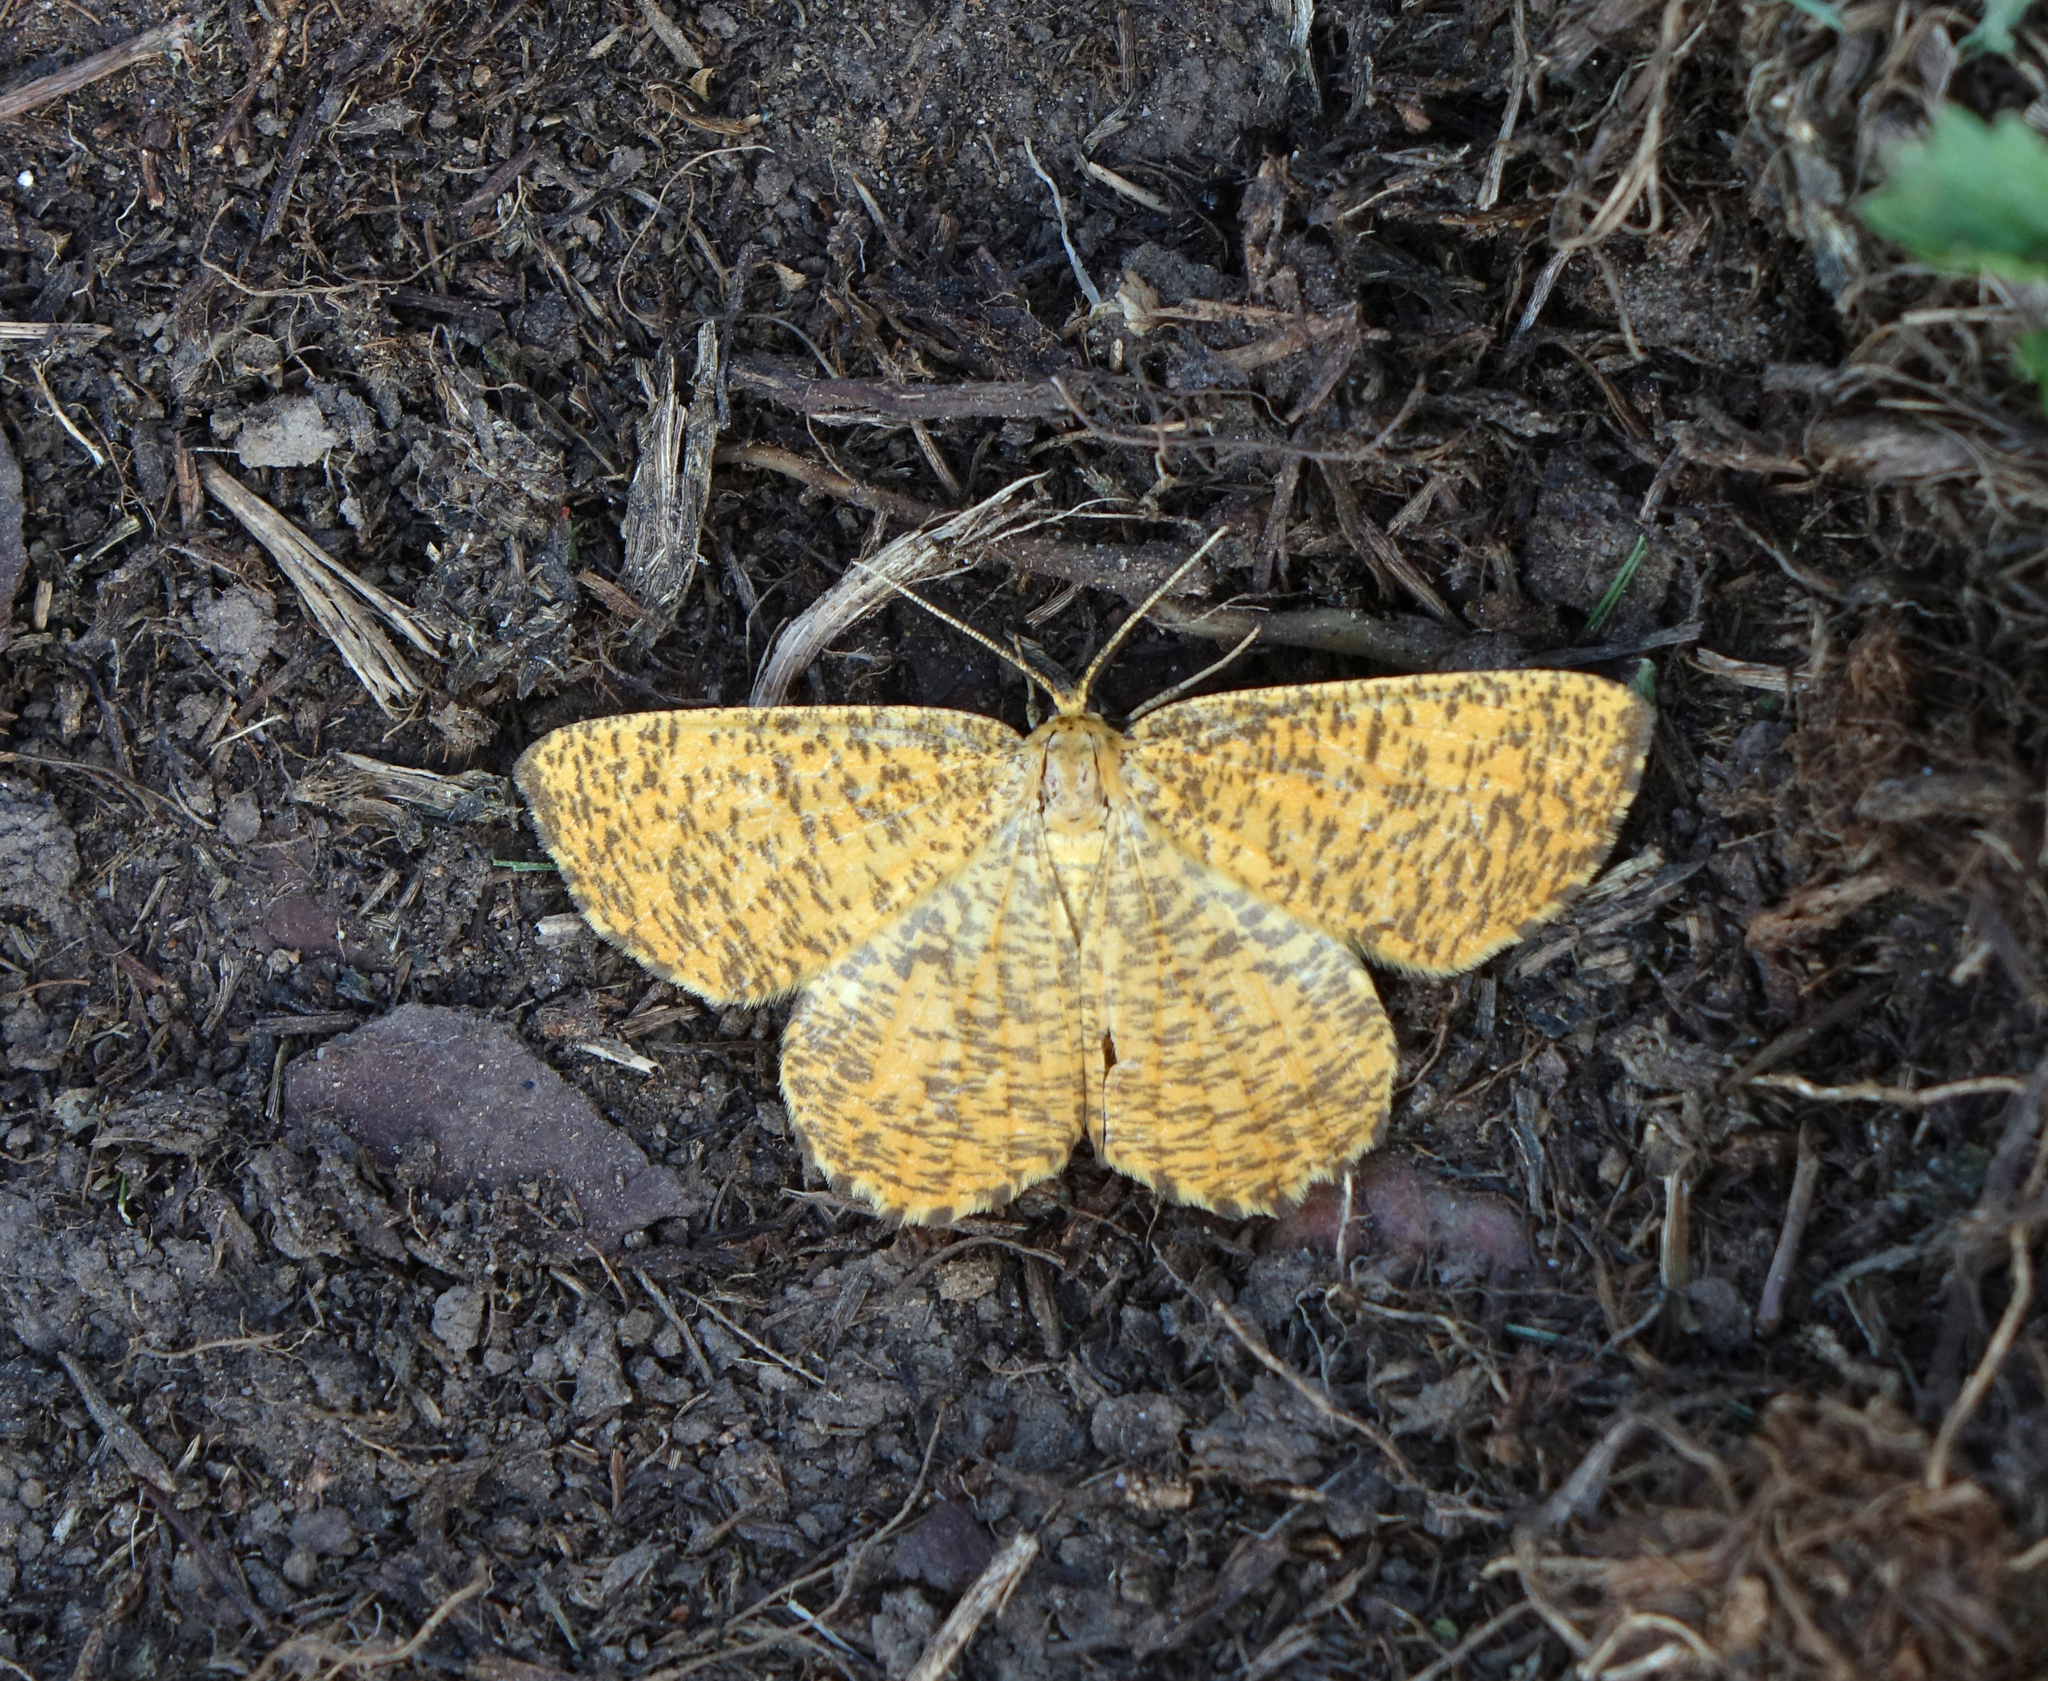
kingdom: Animalia
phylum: Arthropoda
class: Insecta
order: Lepidoptera
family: Geometridae
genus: Angerona
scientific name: Angerona prunaria
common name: Orange moth
